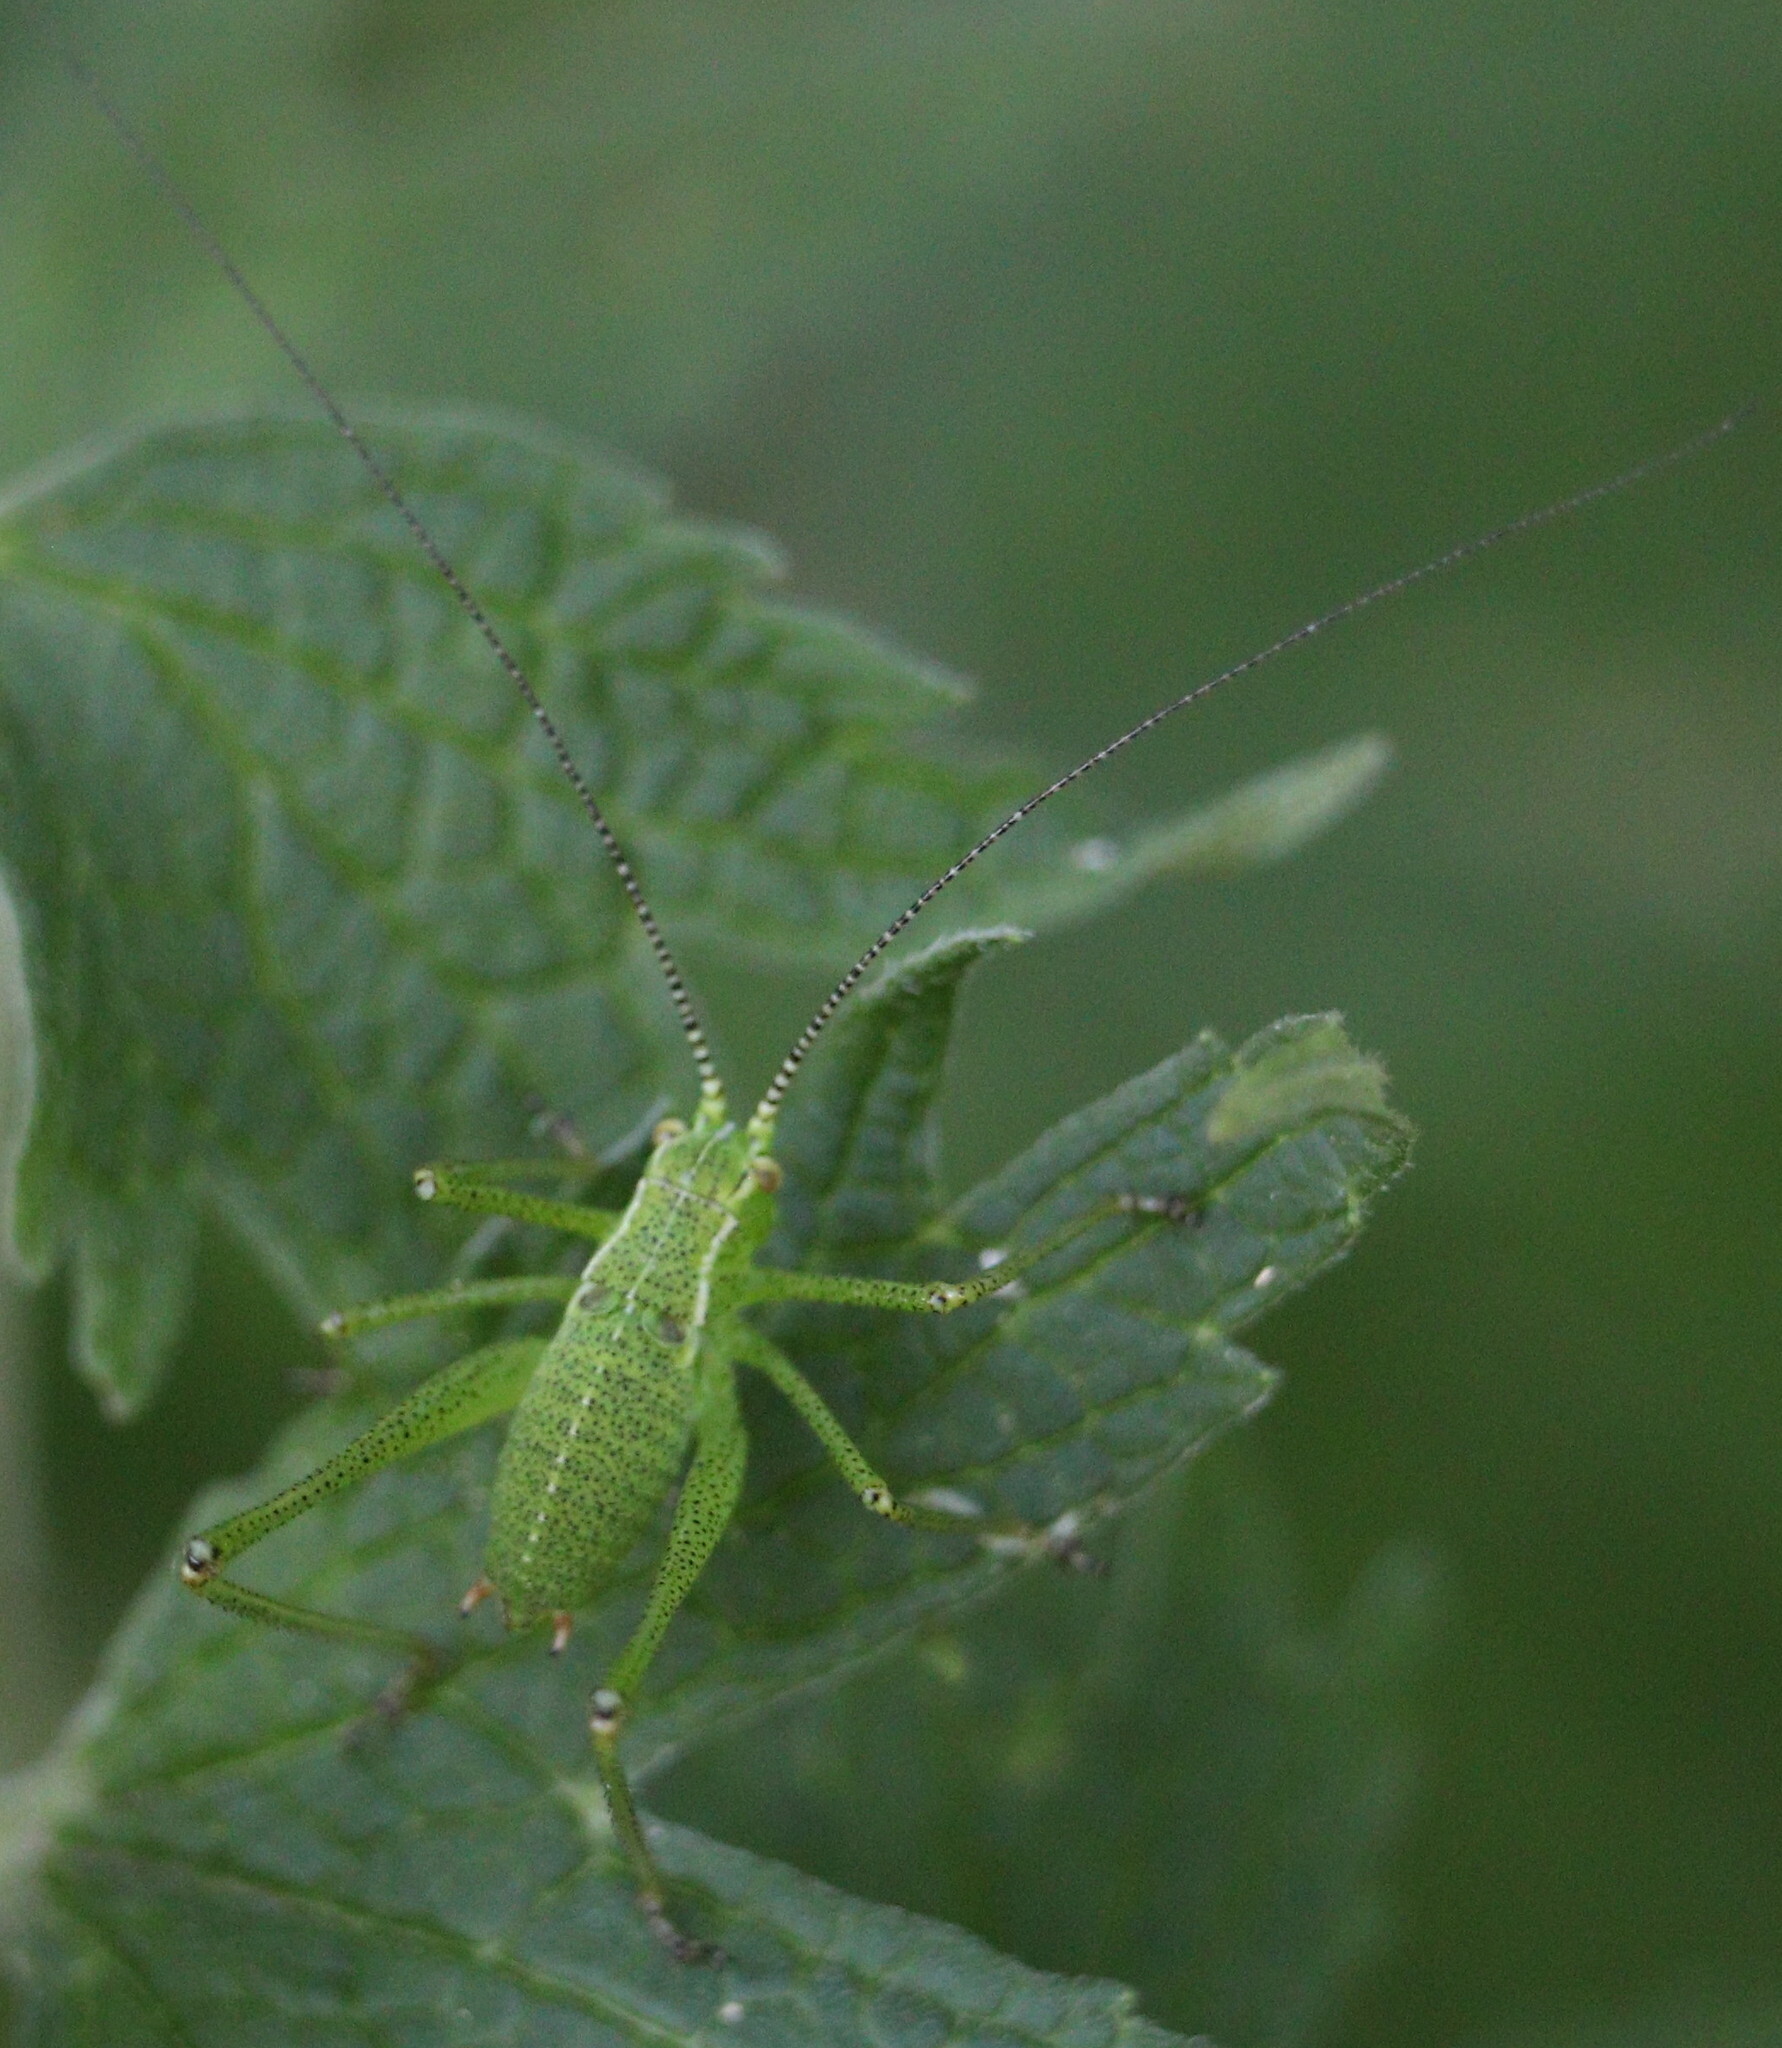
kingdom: Animalia
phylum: Arthropoda
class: Insecta
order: Orthoptera
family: Tettigoniidae
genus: Leptophyes
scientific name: Leptophyes punctatissima
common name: Speckled bush-cricket
